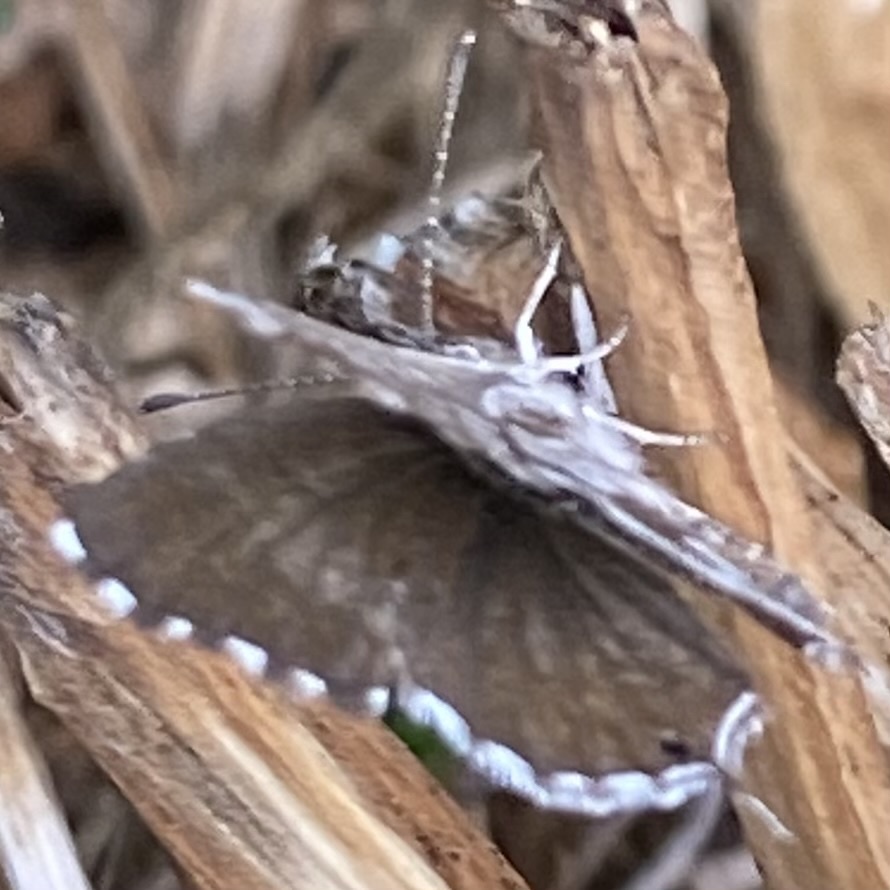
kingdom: Animalia
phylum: Arthropoda
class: Insecta
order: Lepidoptera
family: Lycaenidae
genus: Cacyreus
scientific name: Cacyreus marshalli
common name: Geranium bronze
